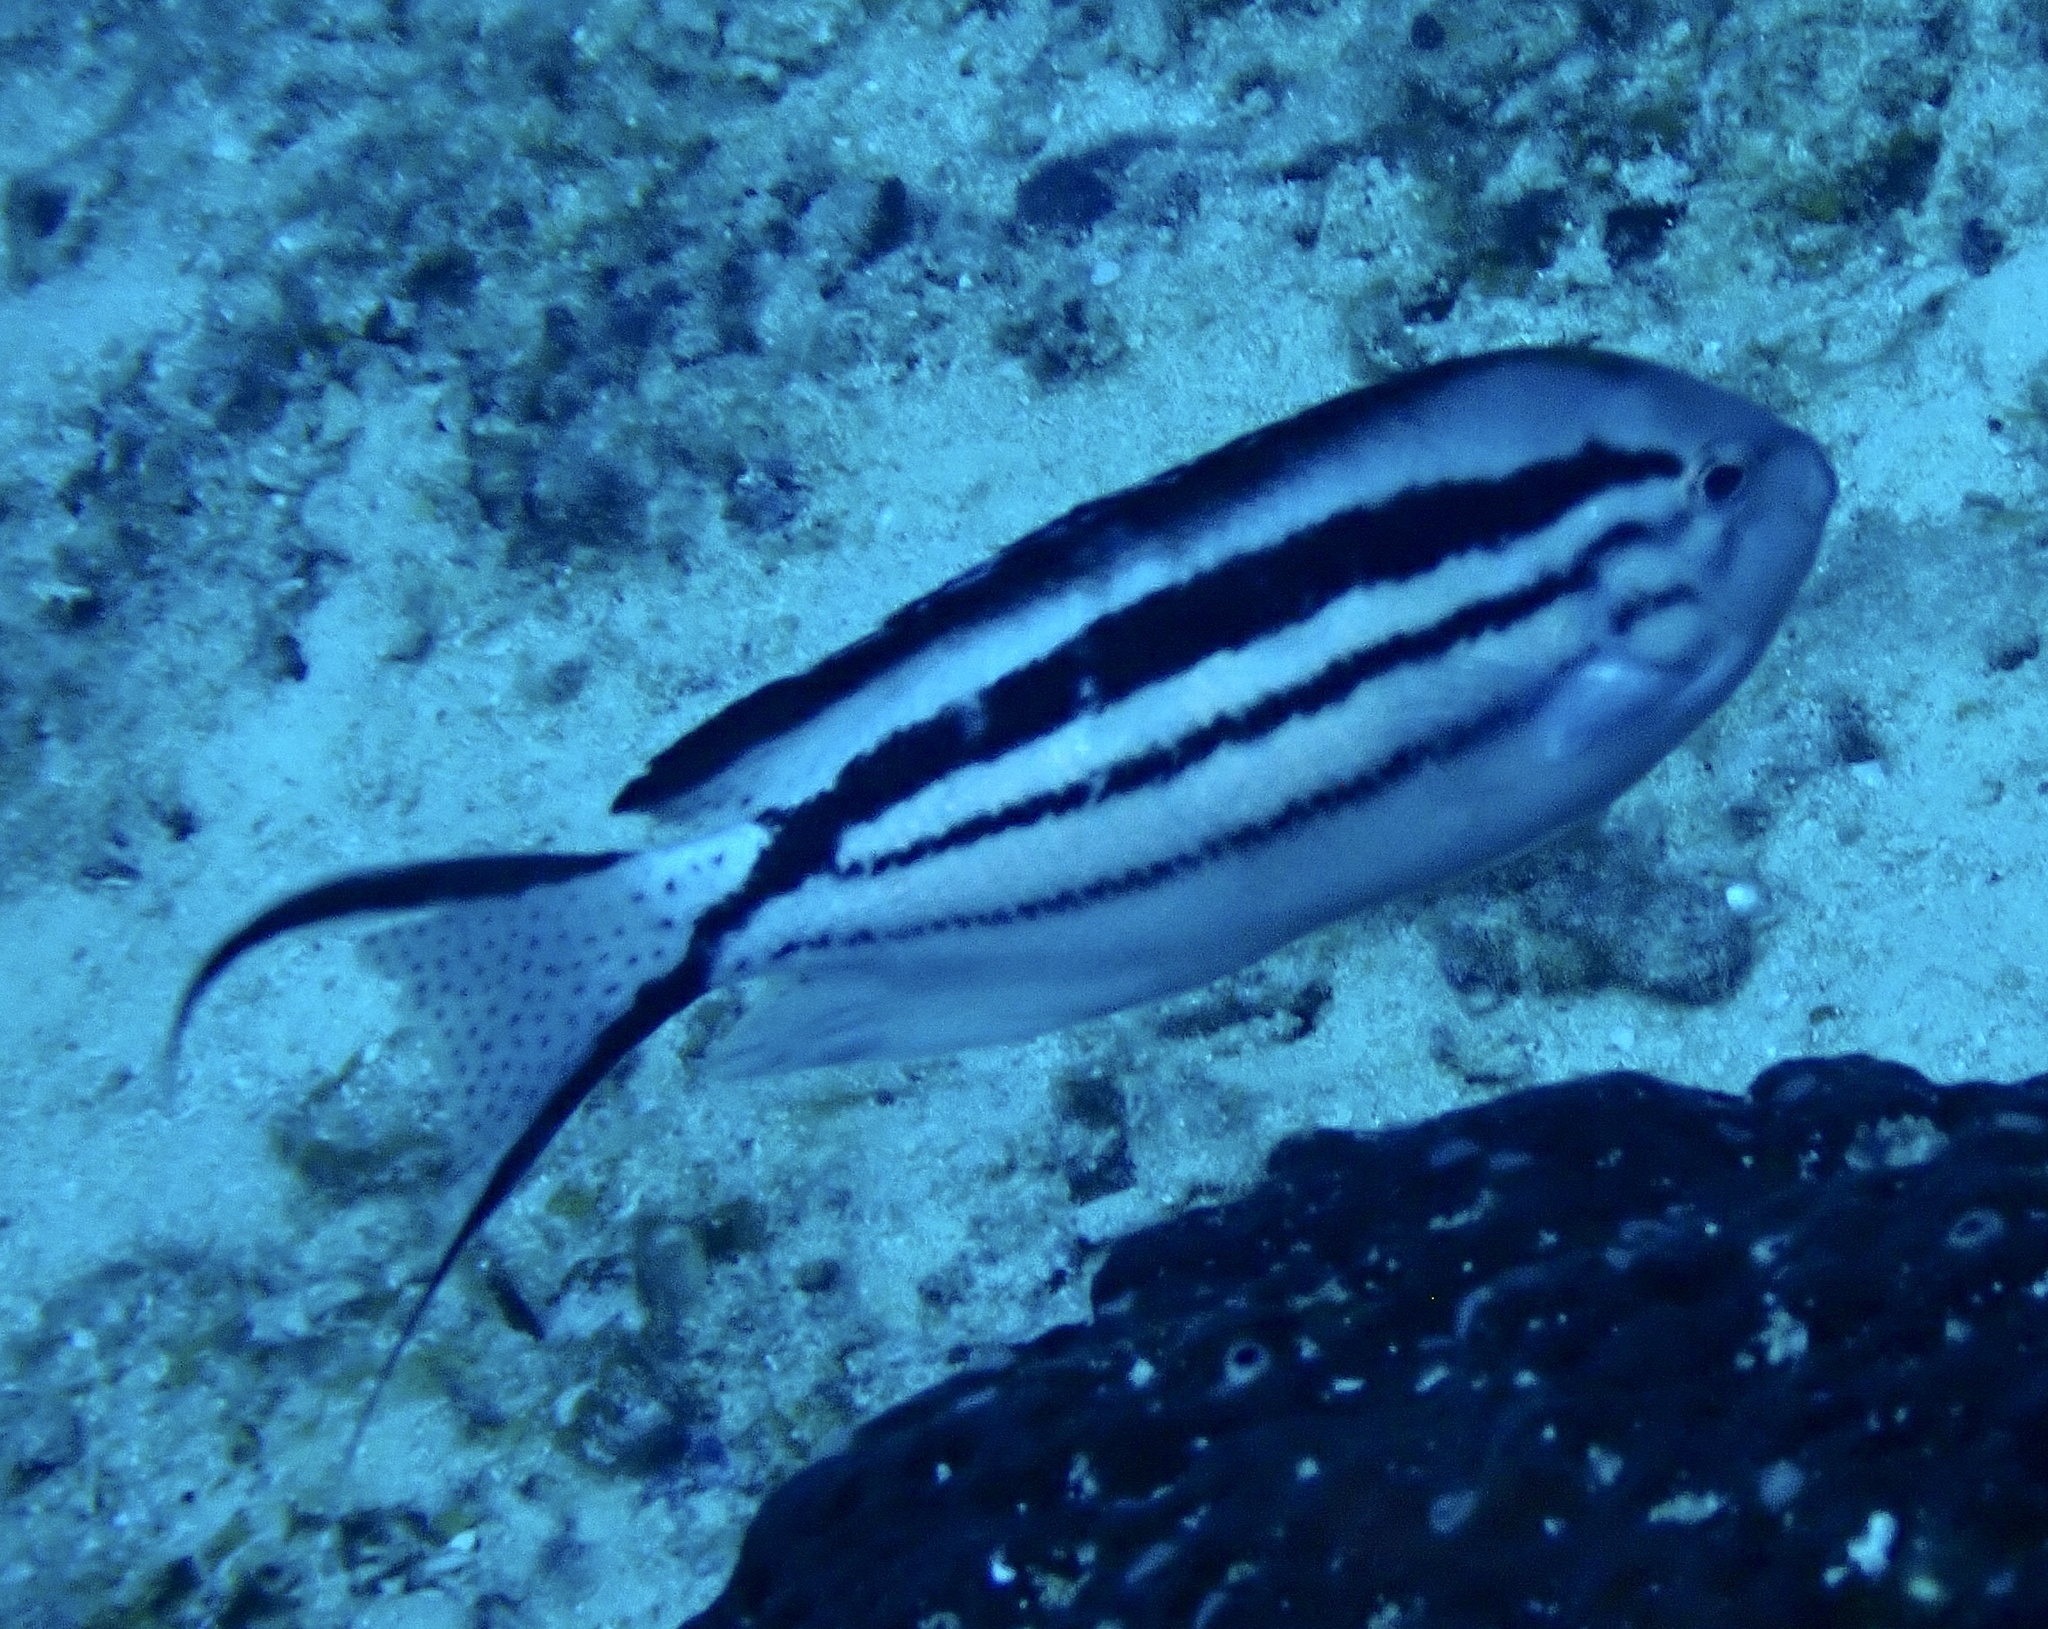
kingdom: Animalia
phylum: Chordata
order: Perciformes
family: Pomacanthidae
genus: Genicanthus
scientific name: Genicanthus lamarck
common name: Lamarck's angelfish
